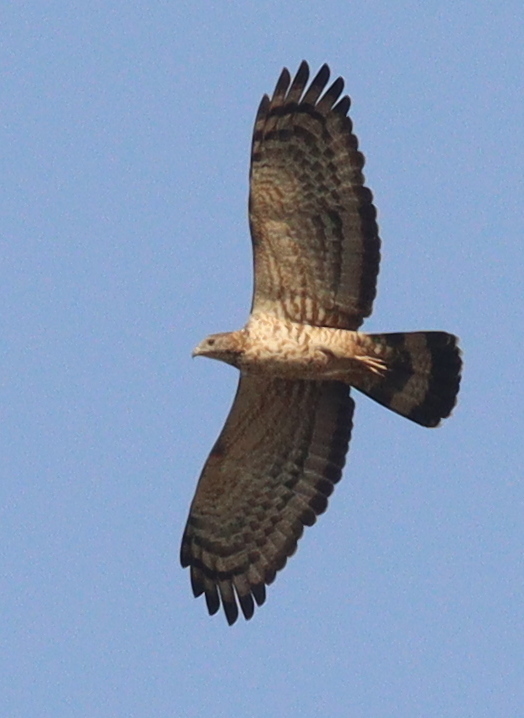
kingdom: Animalia
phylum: Chordata
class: Aves
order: Accipitriformes
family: Accipitridae
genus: Pernis
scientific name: Pernis ptilorhynchus
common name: Crested honey buzzard
